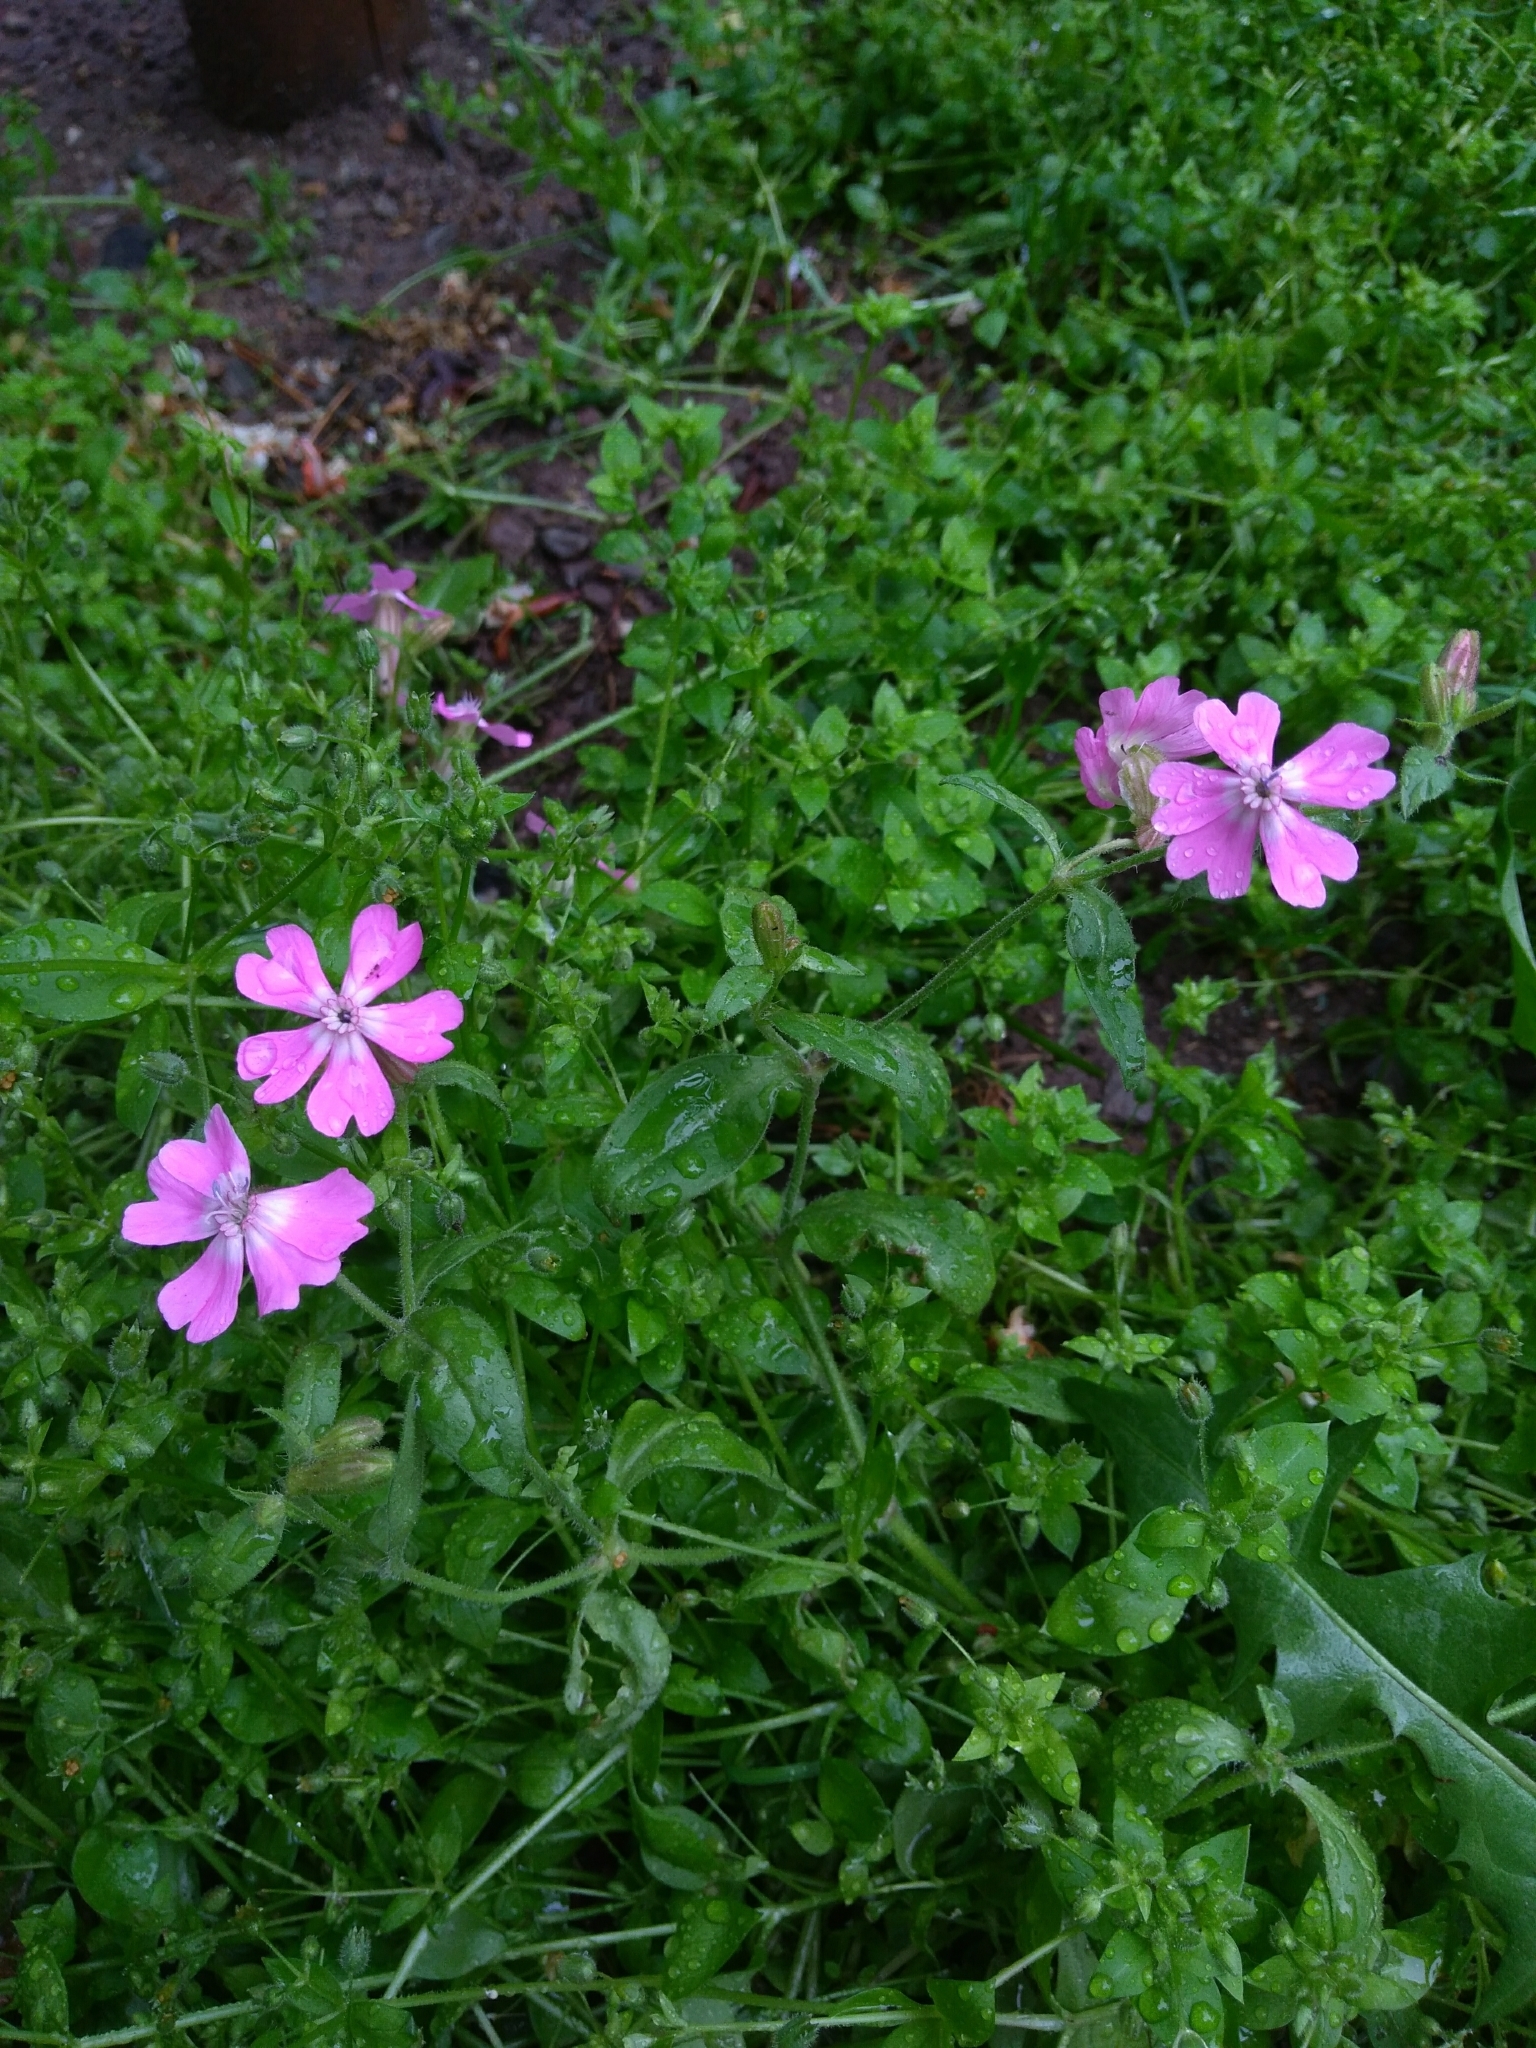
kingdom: Plantae
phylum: Tracheophyta
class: Magnoliopsida
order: Caryophyllales
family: Caryophyllaceae
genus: Silene
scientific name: Silene dioica
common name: Red campion
